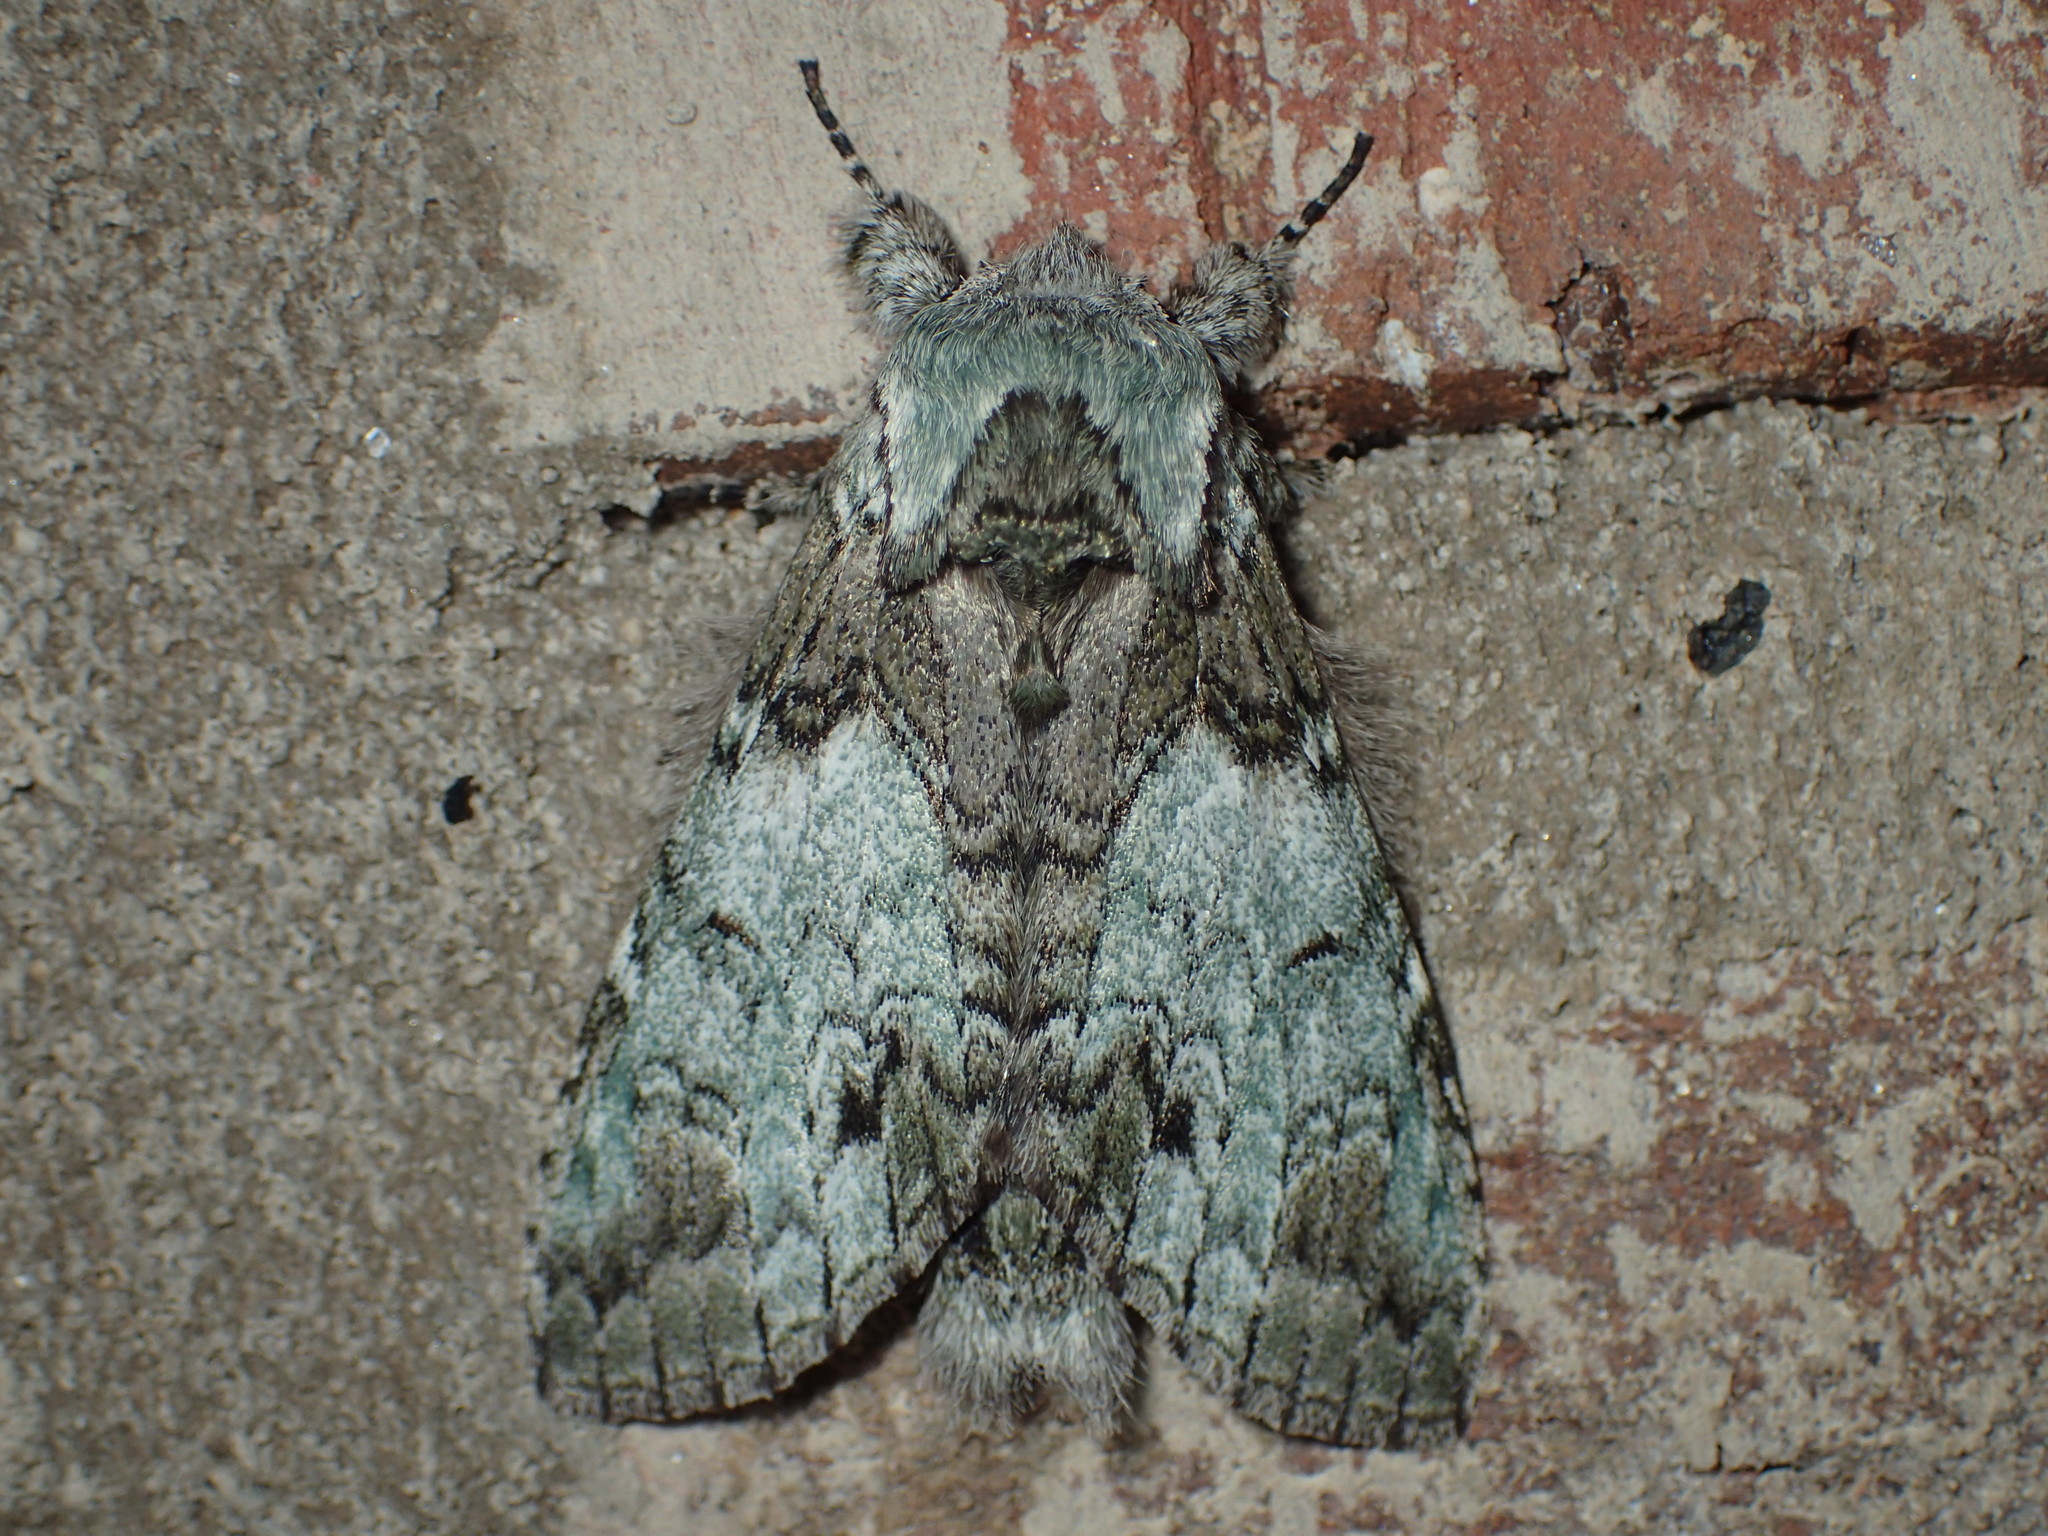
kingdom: Animalia
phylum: Arthropoda
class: Insecta
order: Lepidoptera
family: Notodontidae
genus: Macrurocampa
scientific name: Macrurocampa marthesia
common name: Mottled prominent
